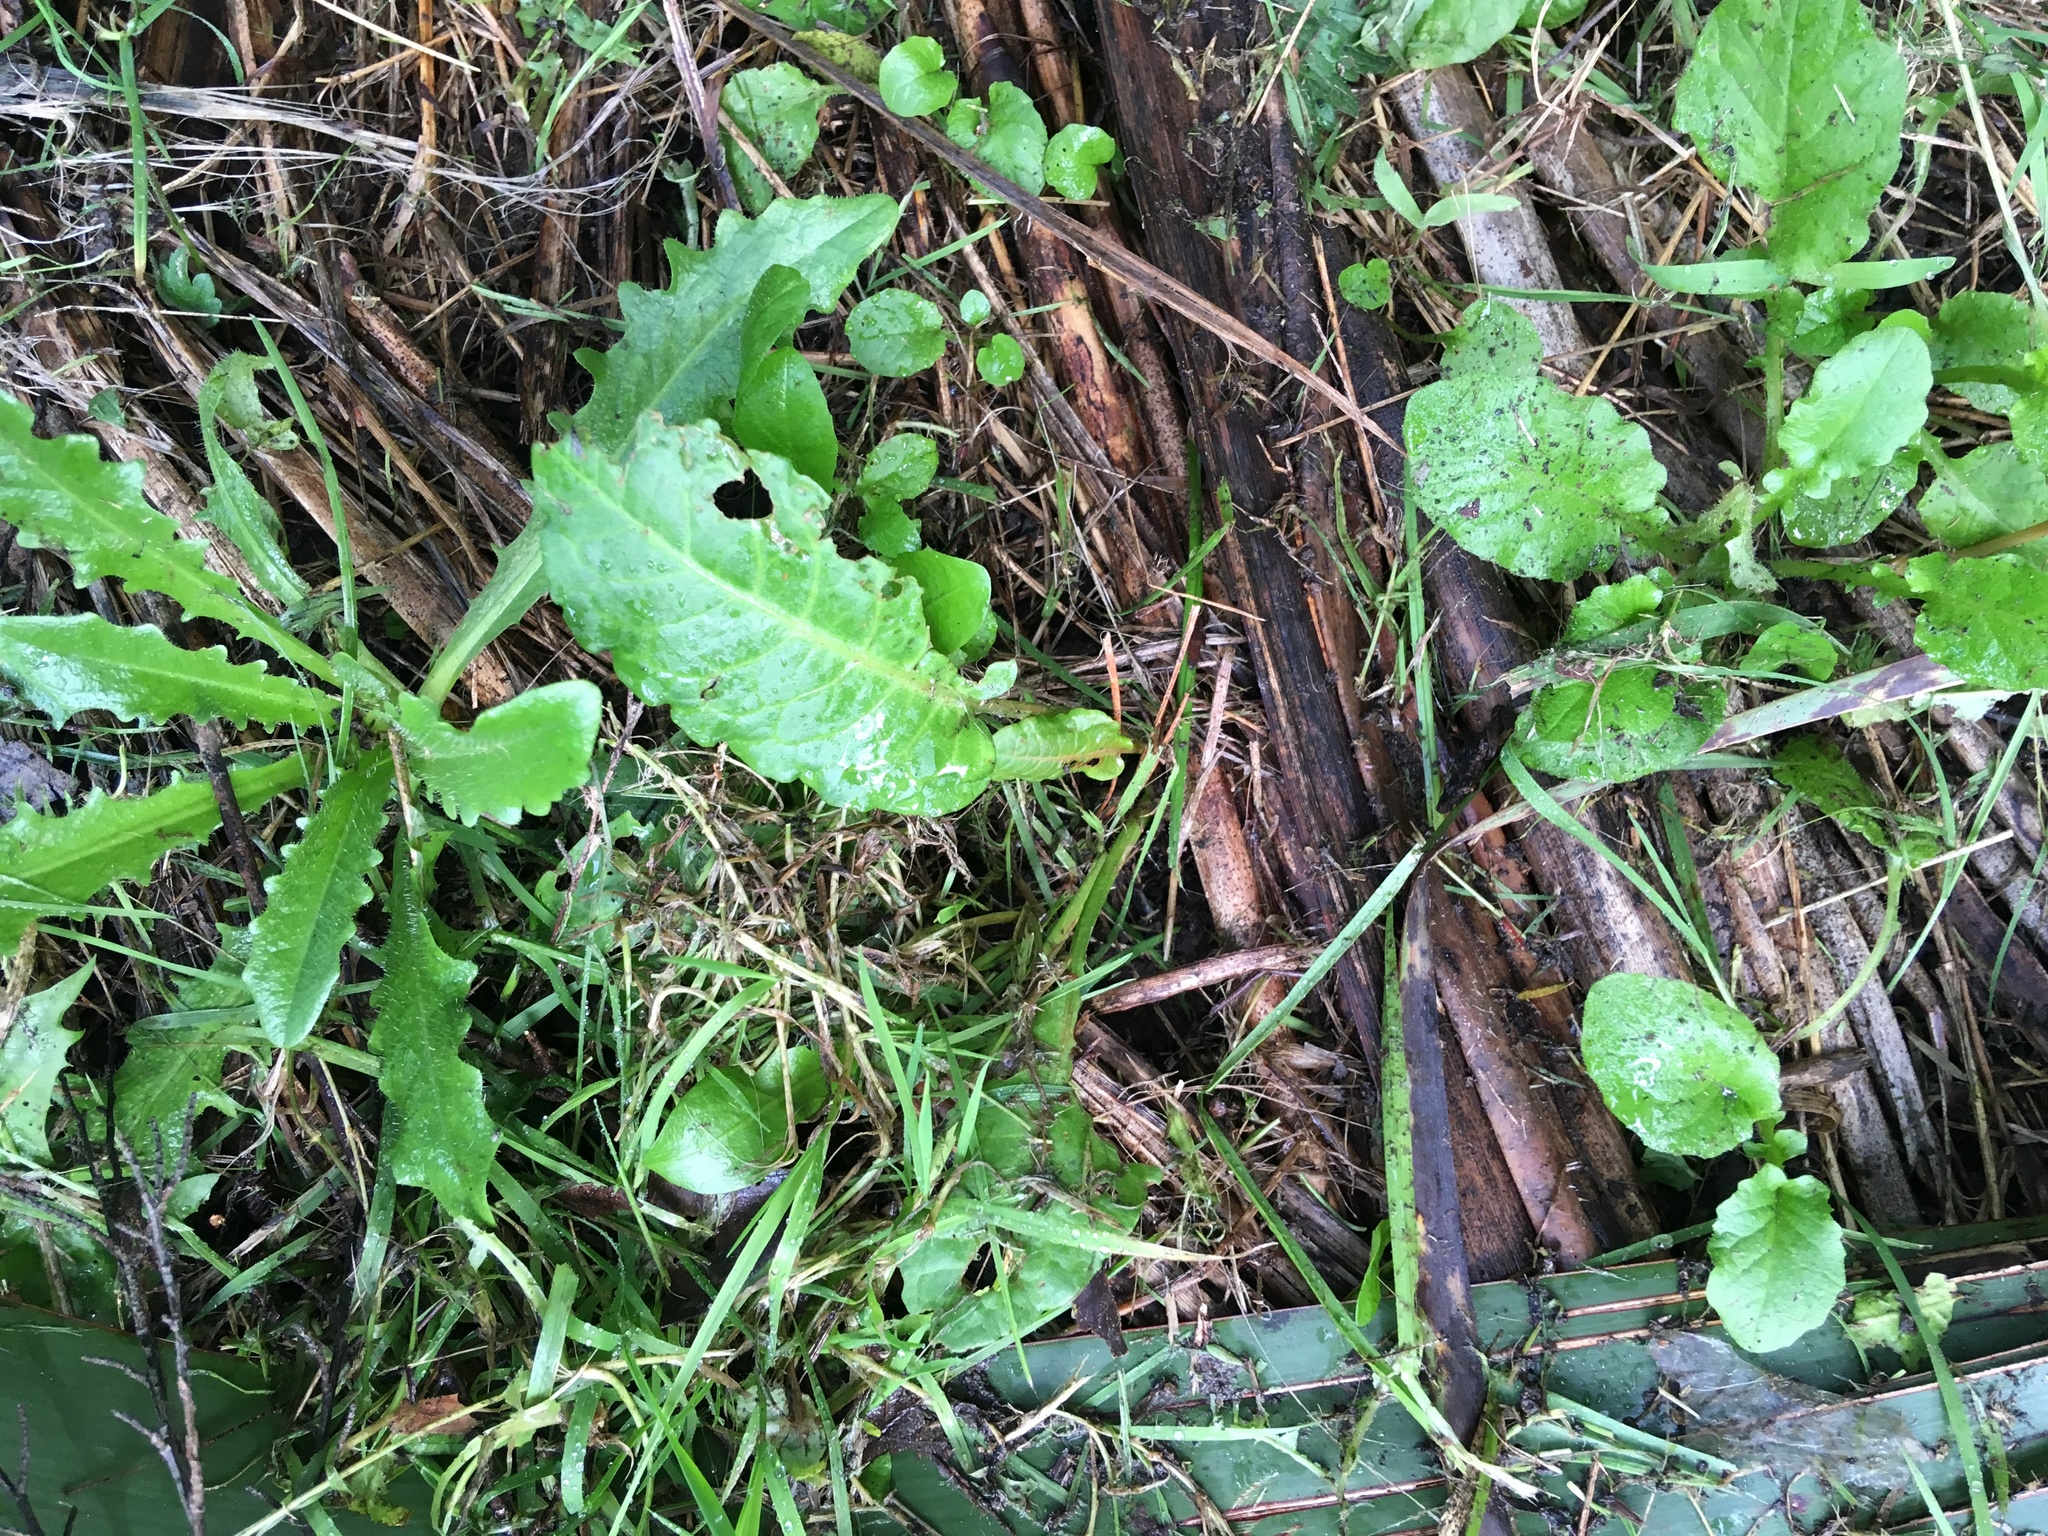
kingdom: Plantae
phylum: Tracheophyta
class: Magnoliopsida
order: Caryophyllales
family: Polygonaceae
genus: Rumex
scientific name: Rumex obtusifolius
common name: Bitter dock
